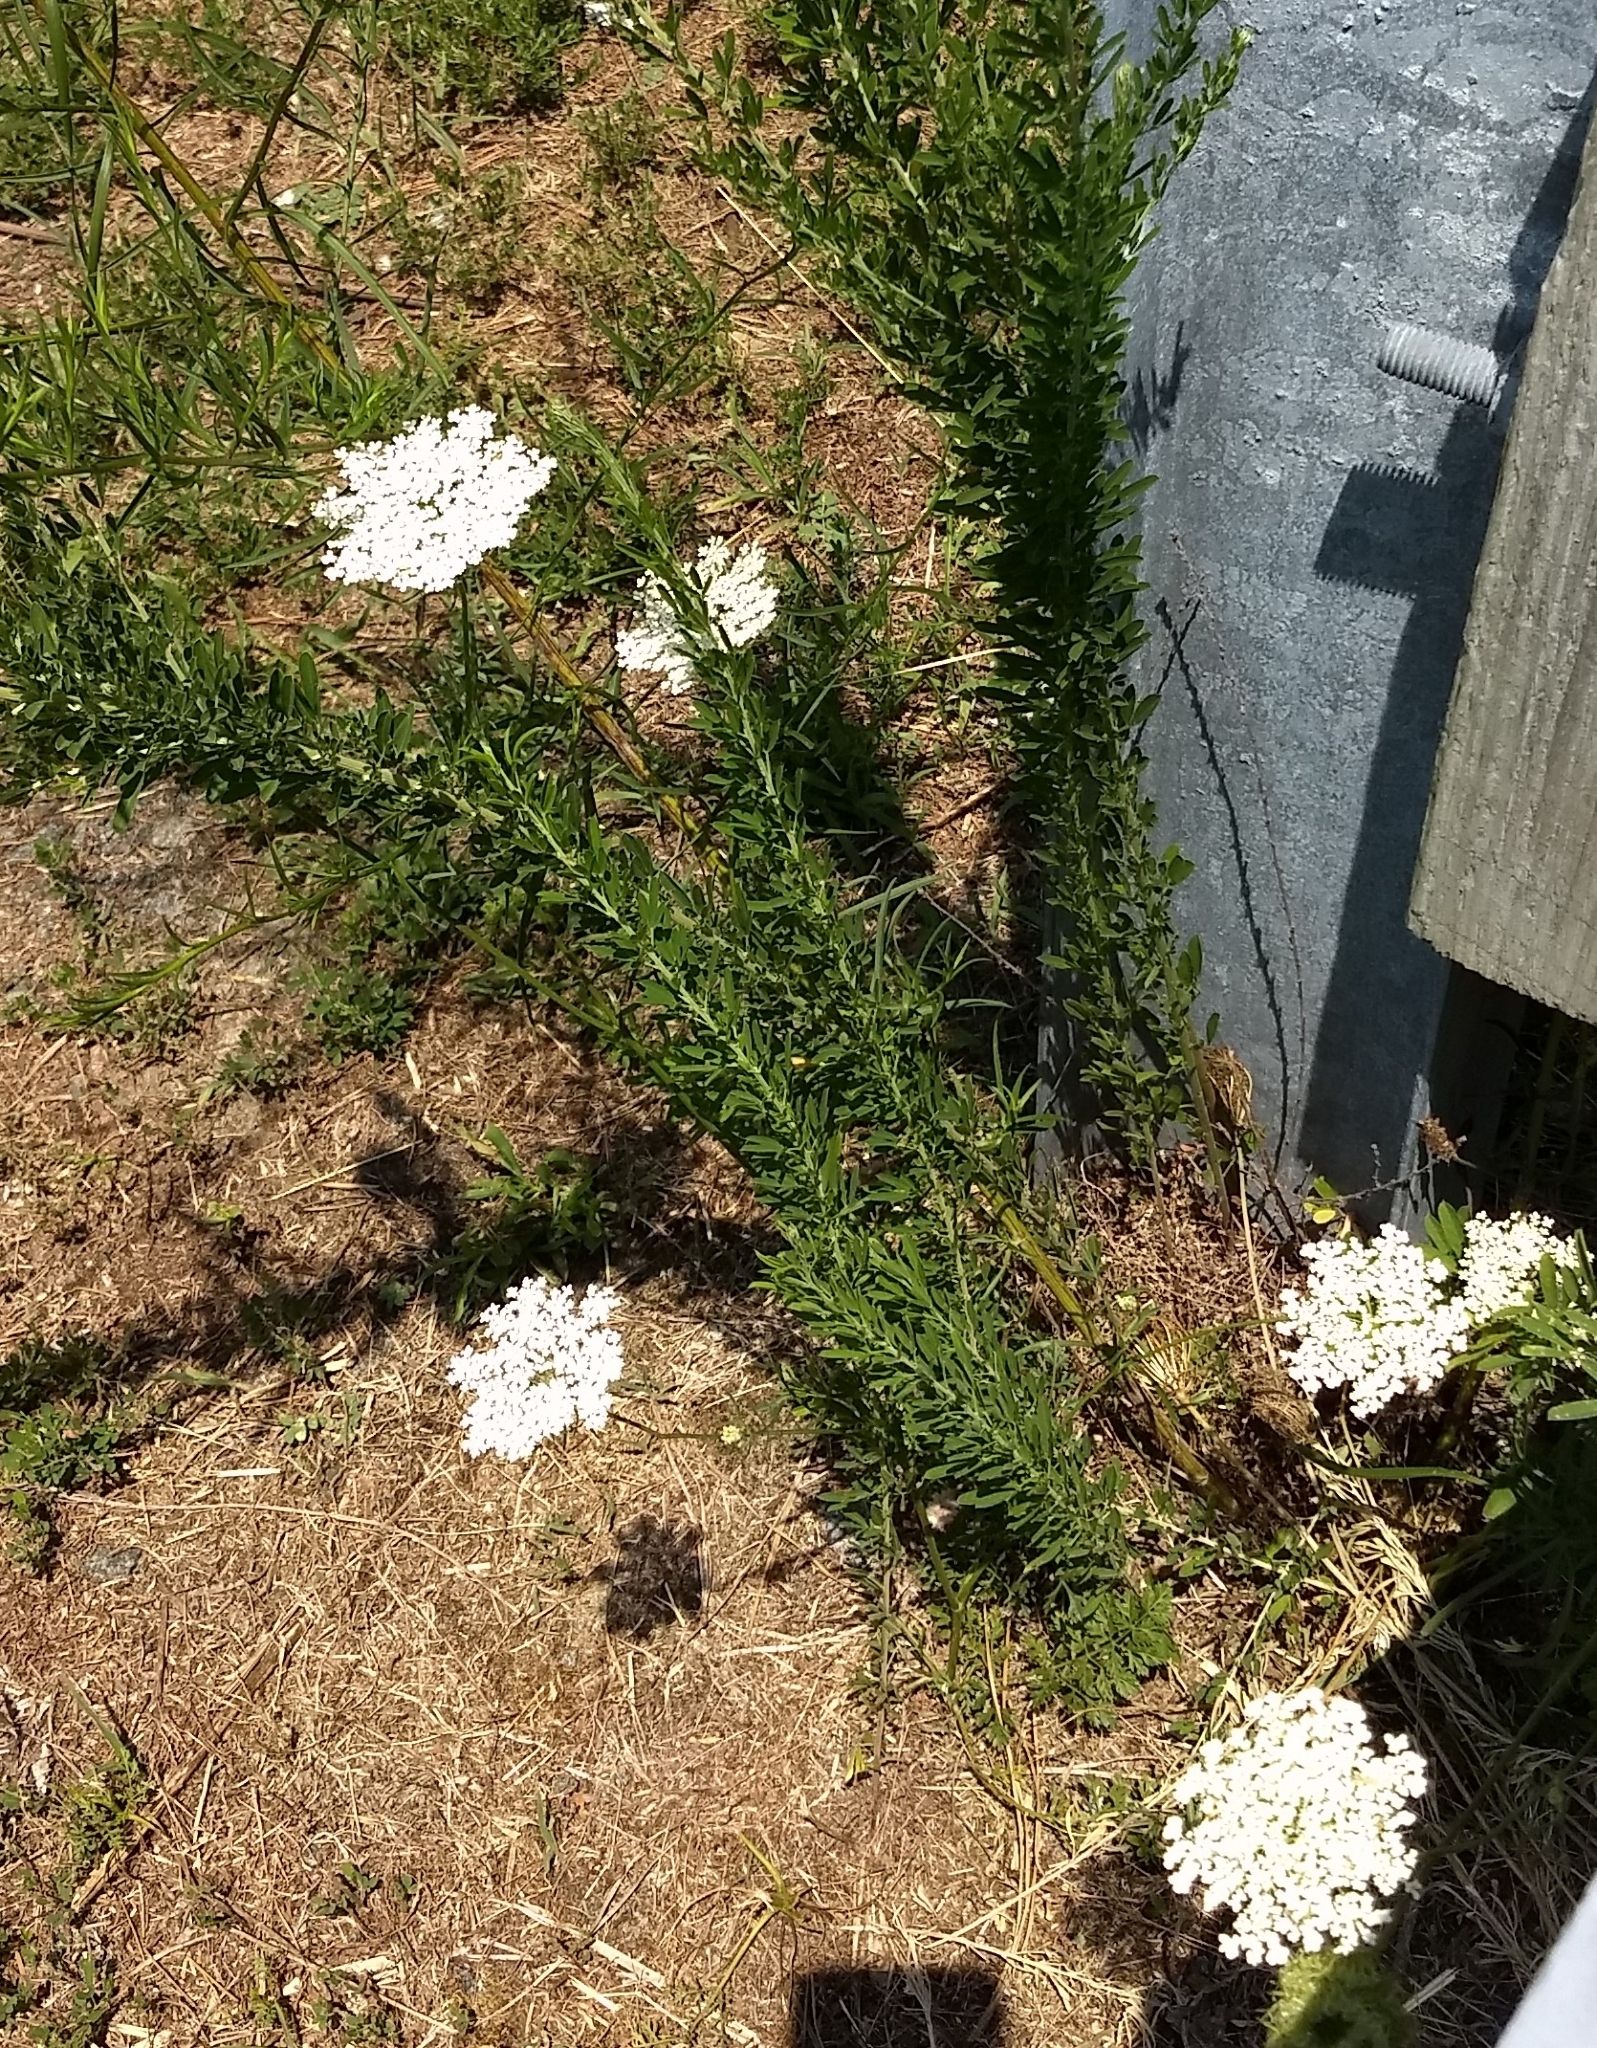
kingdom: Plantae
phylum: Tracheophyta
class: Magnoliopsida
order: Asterales
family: Asteraceae
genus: Achillea
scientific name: Achillea millefolium
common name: Yarrow
